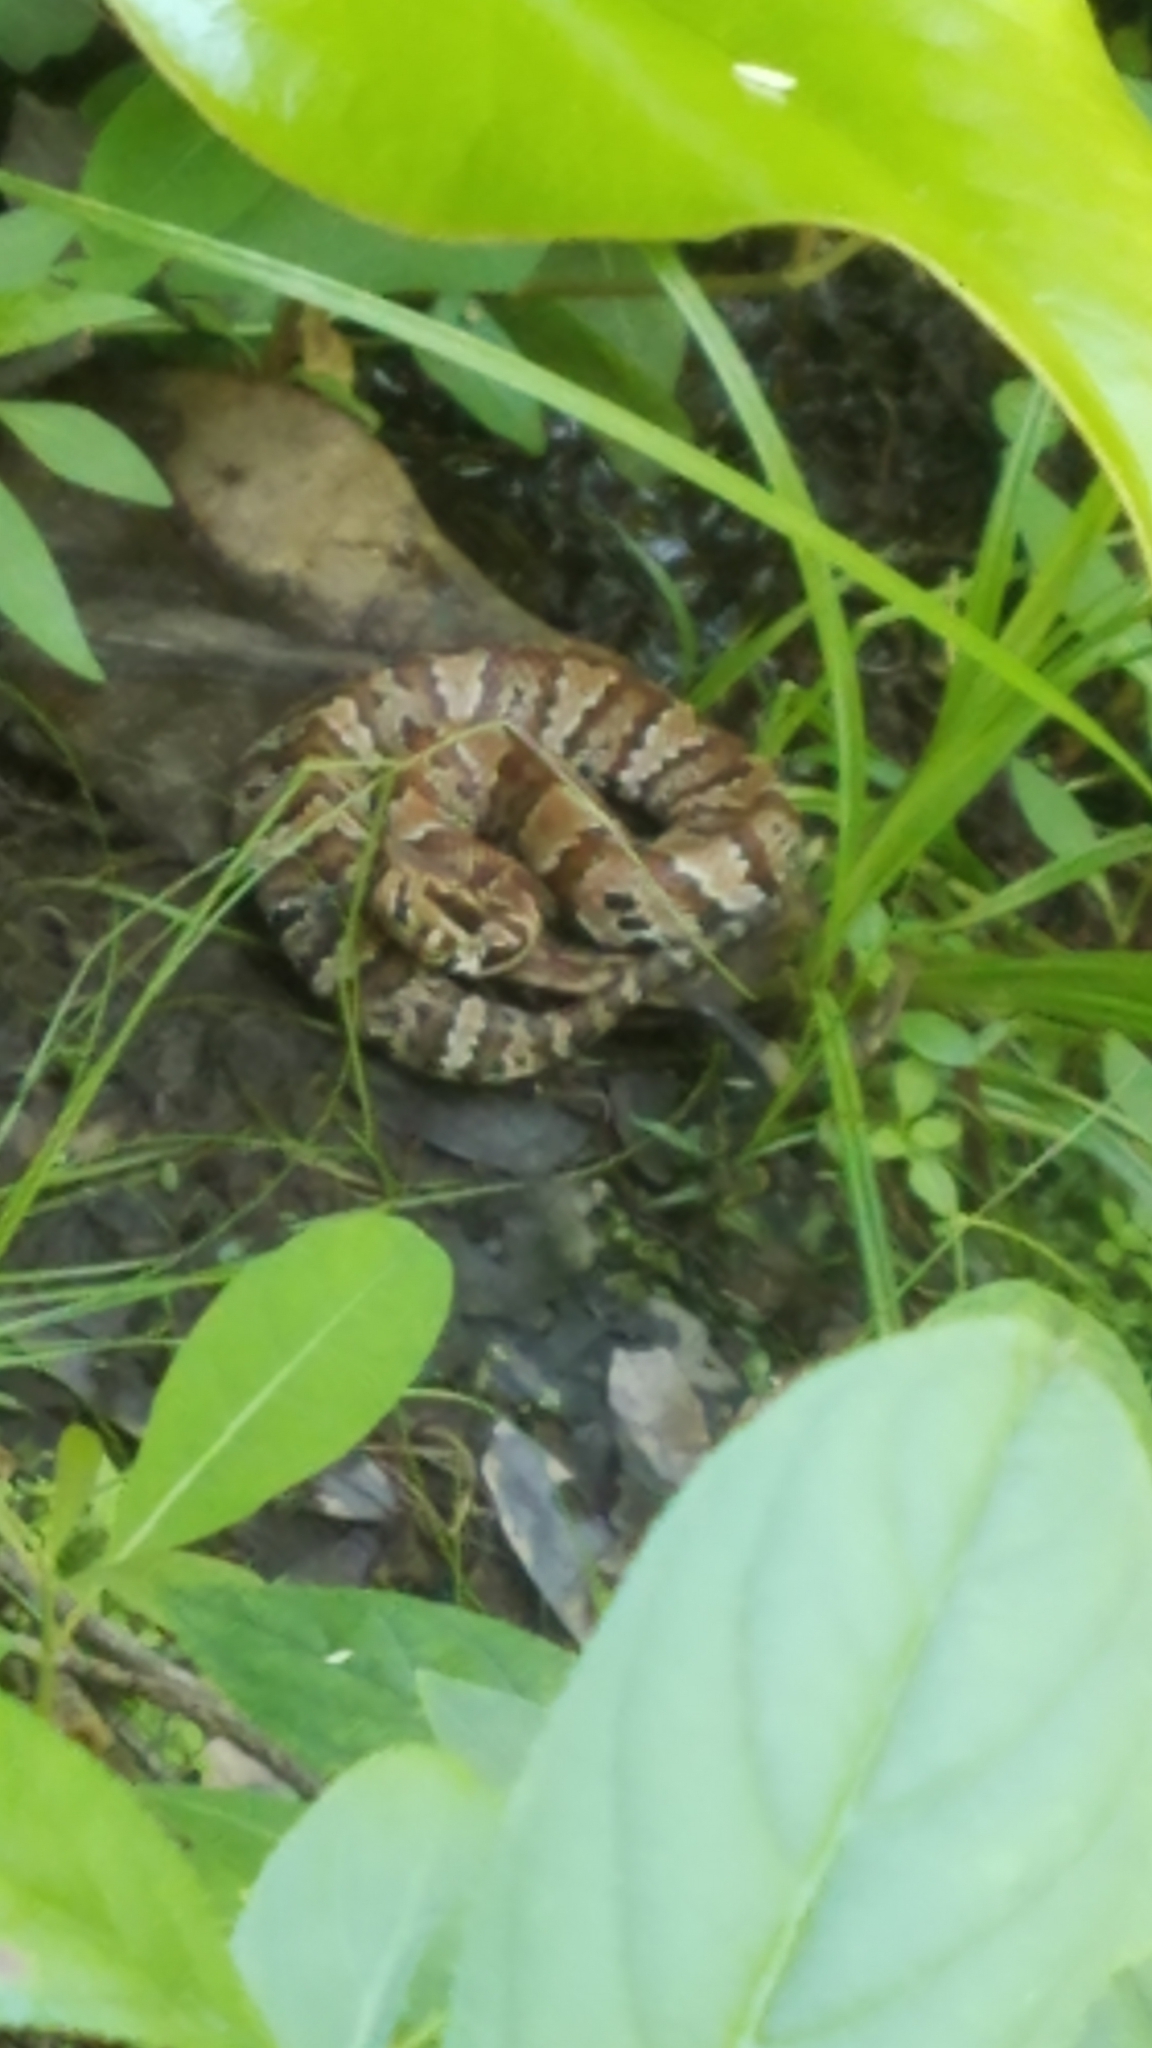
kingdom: Animalia
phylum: Chordata
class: Squamata
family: Viperidae
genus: Agkistrodon
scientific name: Agkistrodon conanti
